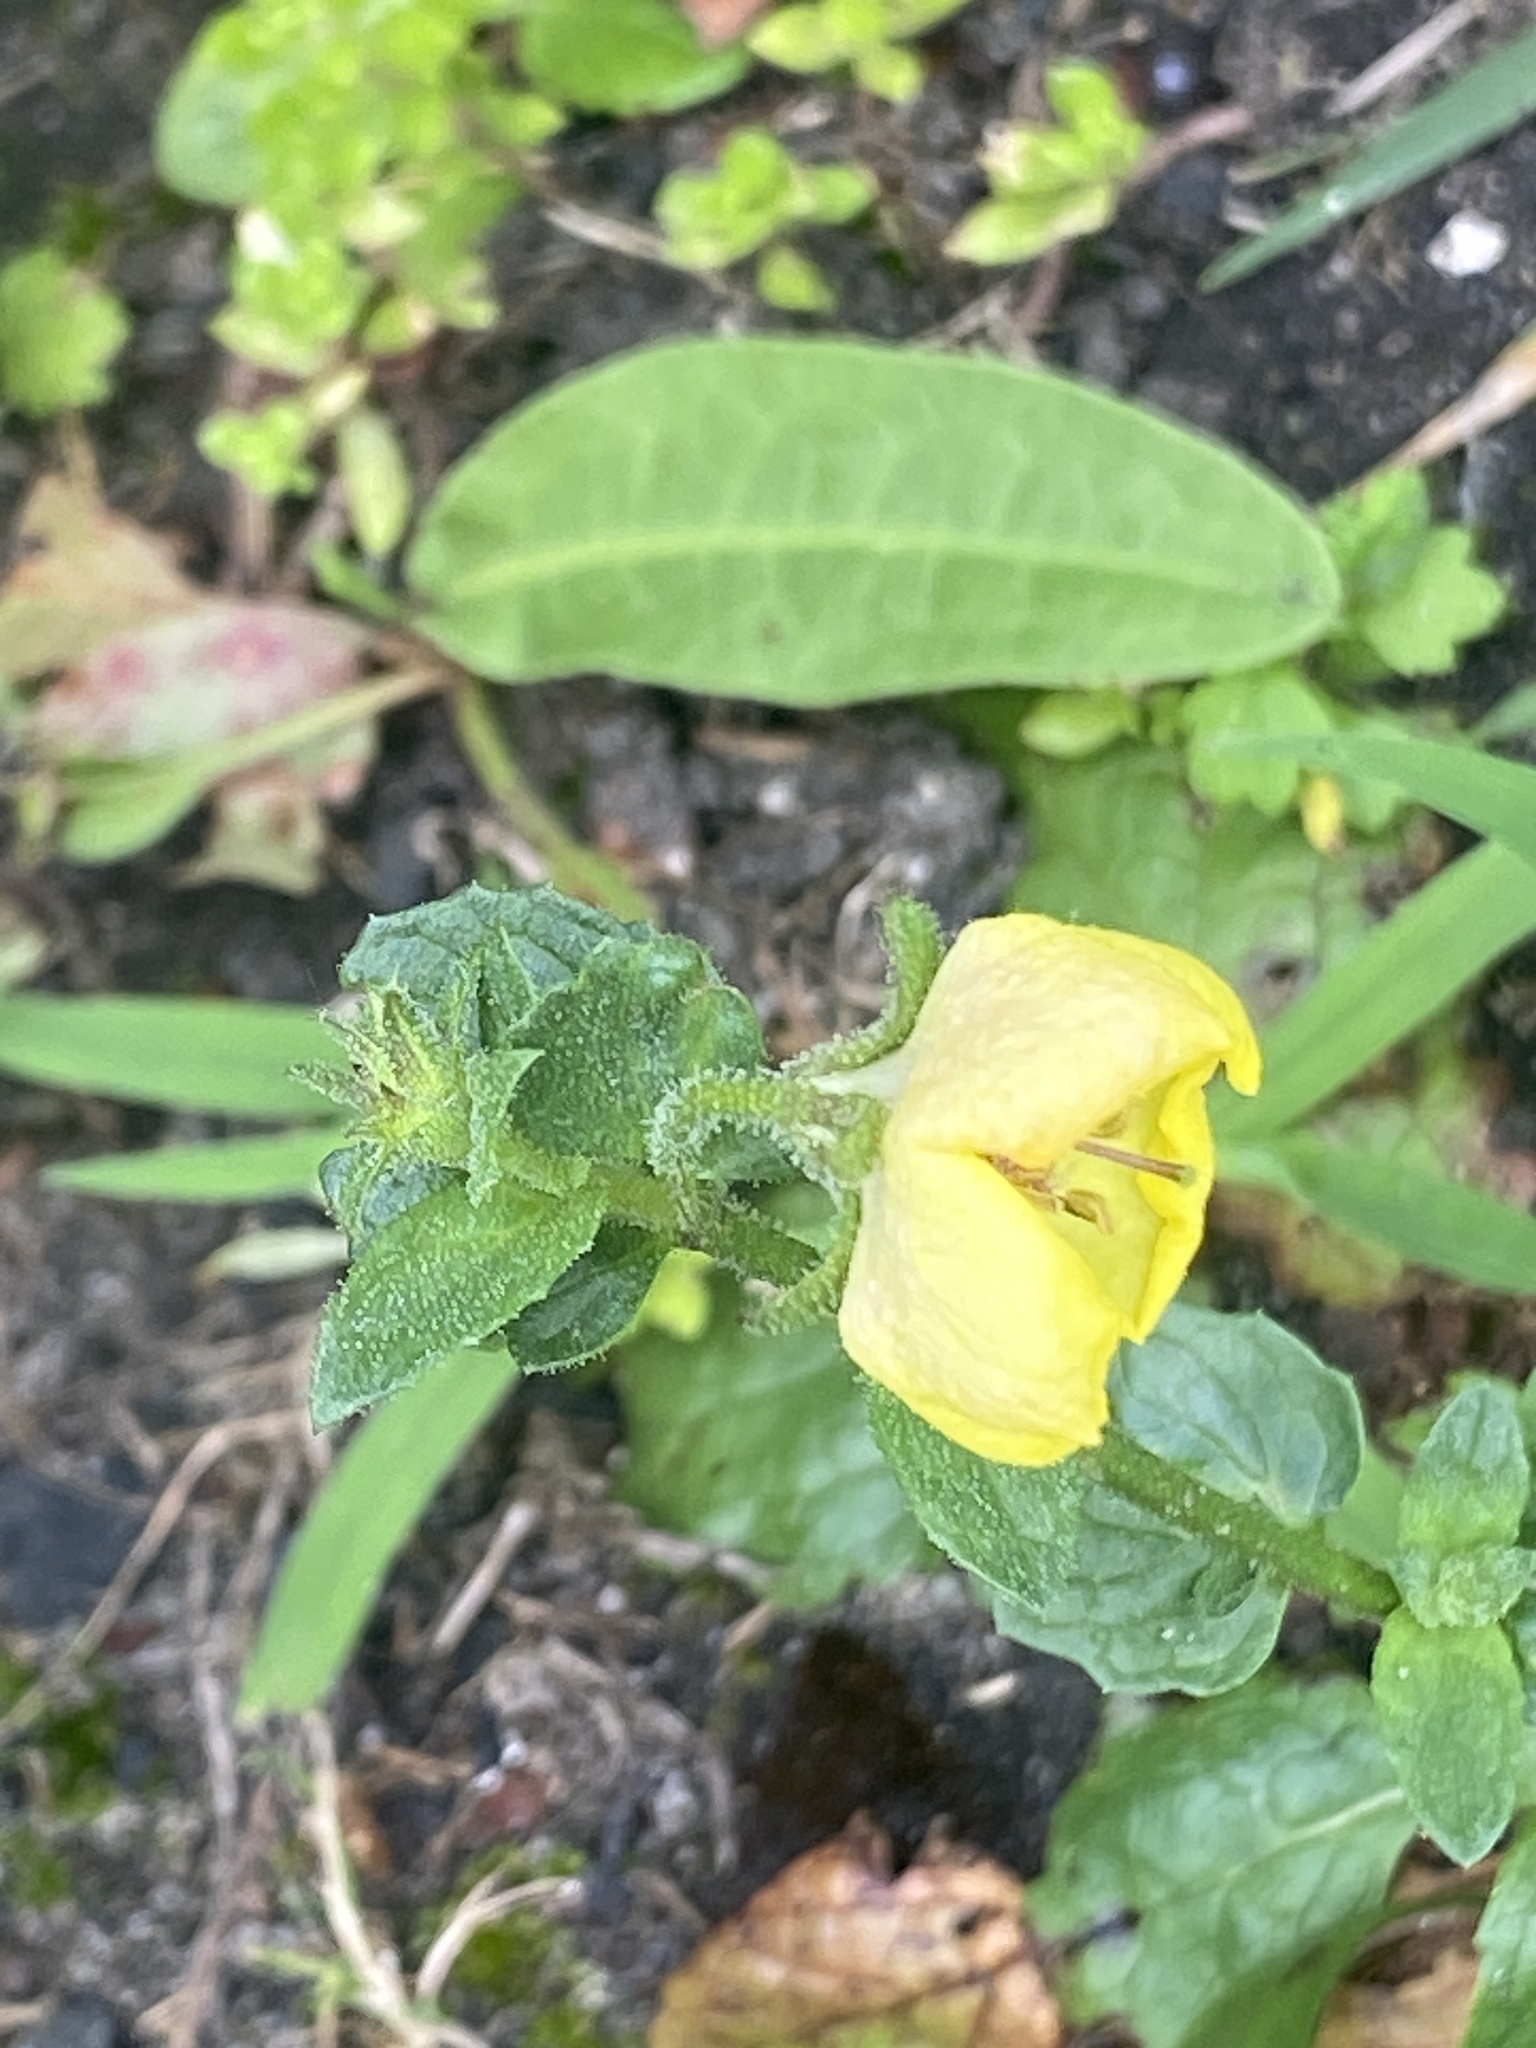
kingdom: Plantae
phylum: Tracheophyta
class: Magnoliopsida
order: Lamiales
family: Scrophulariaceae
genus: Verbascum
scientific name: Verbascum blattaria
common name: Moth mullein
